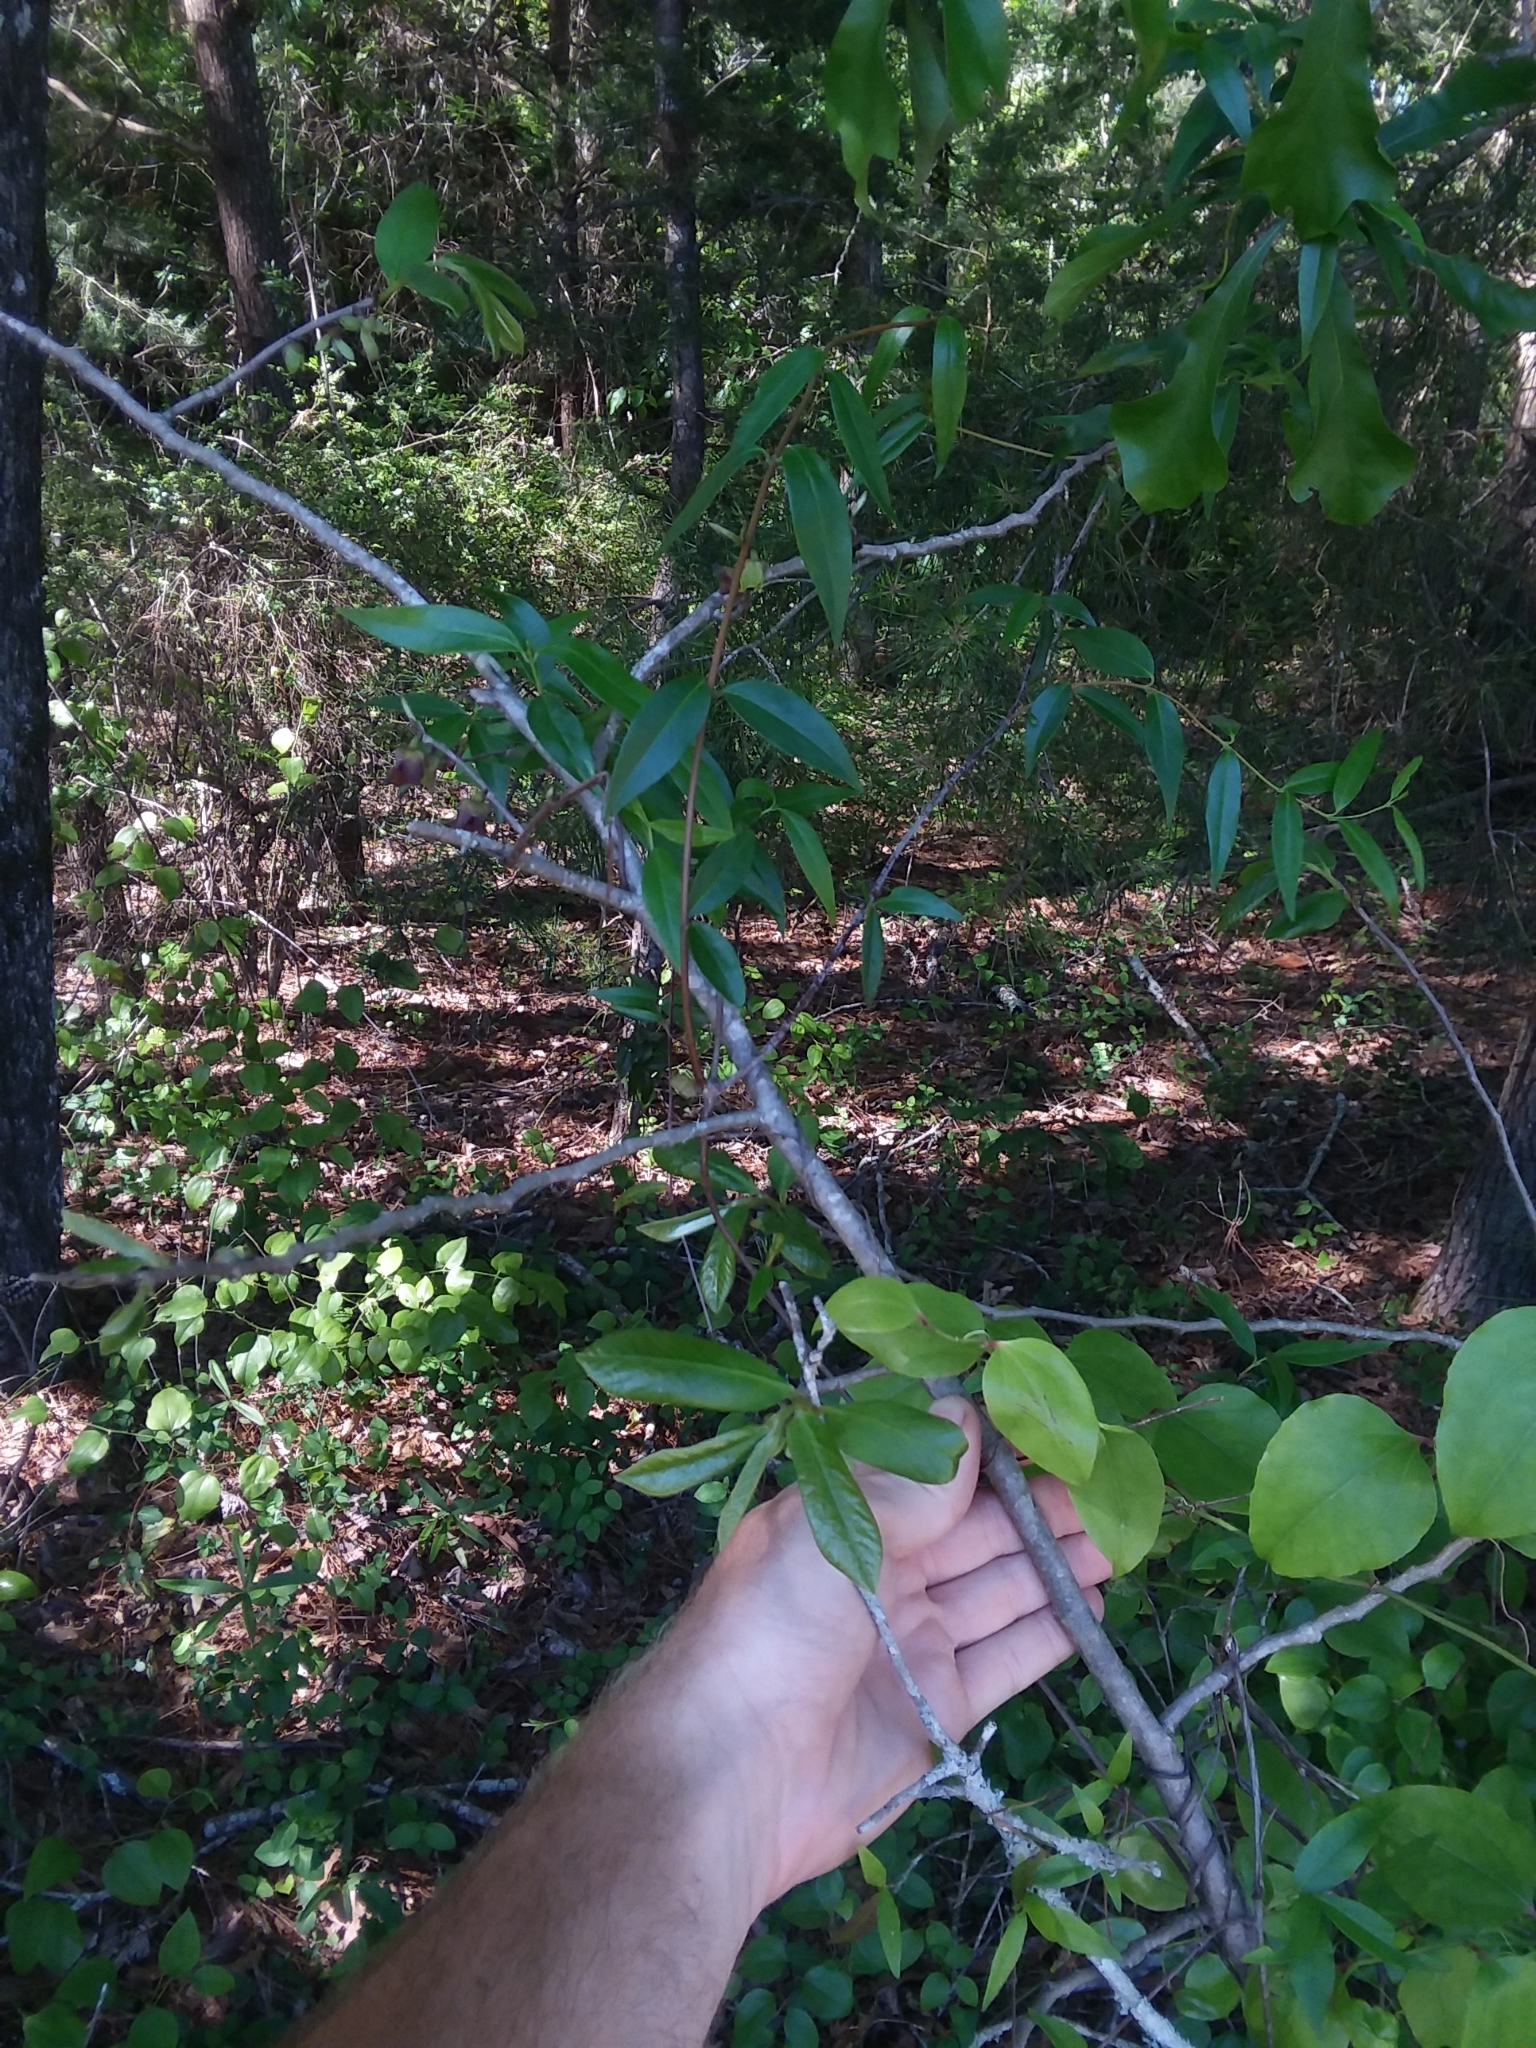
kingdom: Plantae
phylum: Tracheophyta
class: Magnoliopsida
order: Magnoliales
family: Annonaceae
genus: Asimina
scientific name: Asimina parviflora
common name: Dwarf pawpaw
